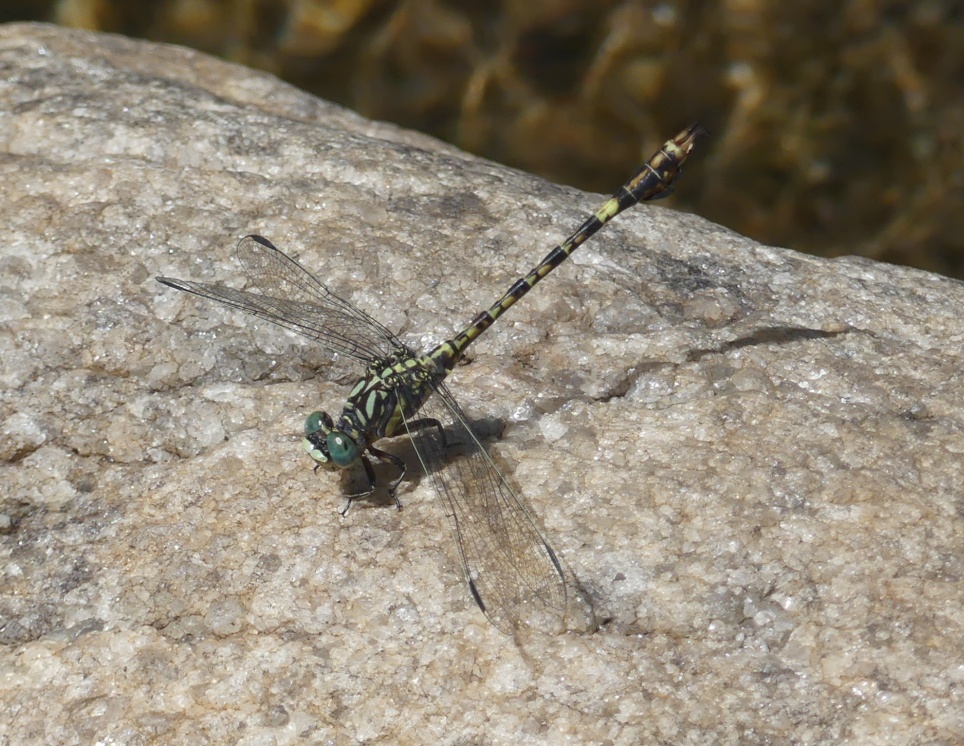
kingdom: Animalia
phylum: Arthropoda
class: Insecta
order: Odonata
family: Gomphidae
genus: Paragomphus
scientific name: Paragomphus cognatus
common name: Boulder hooktail
